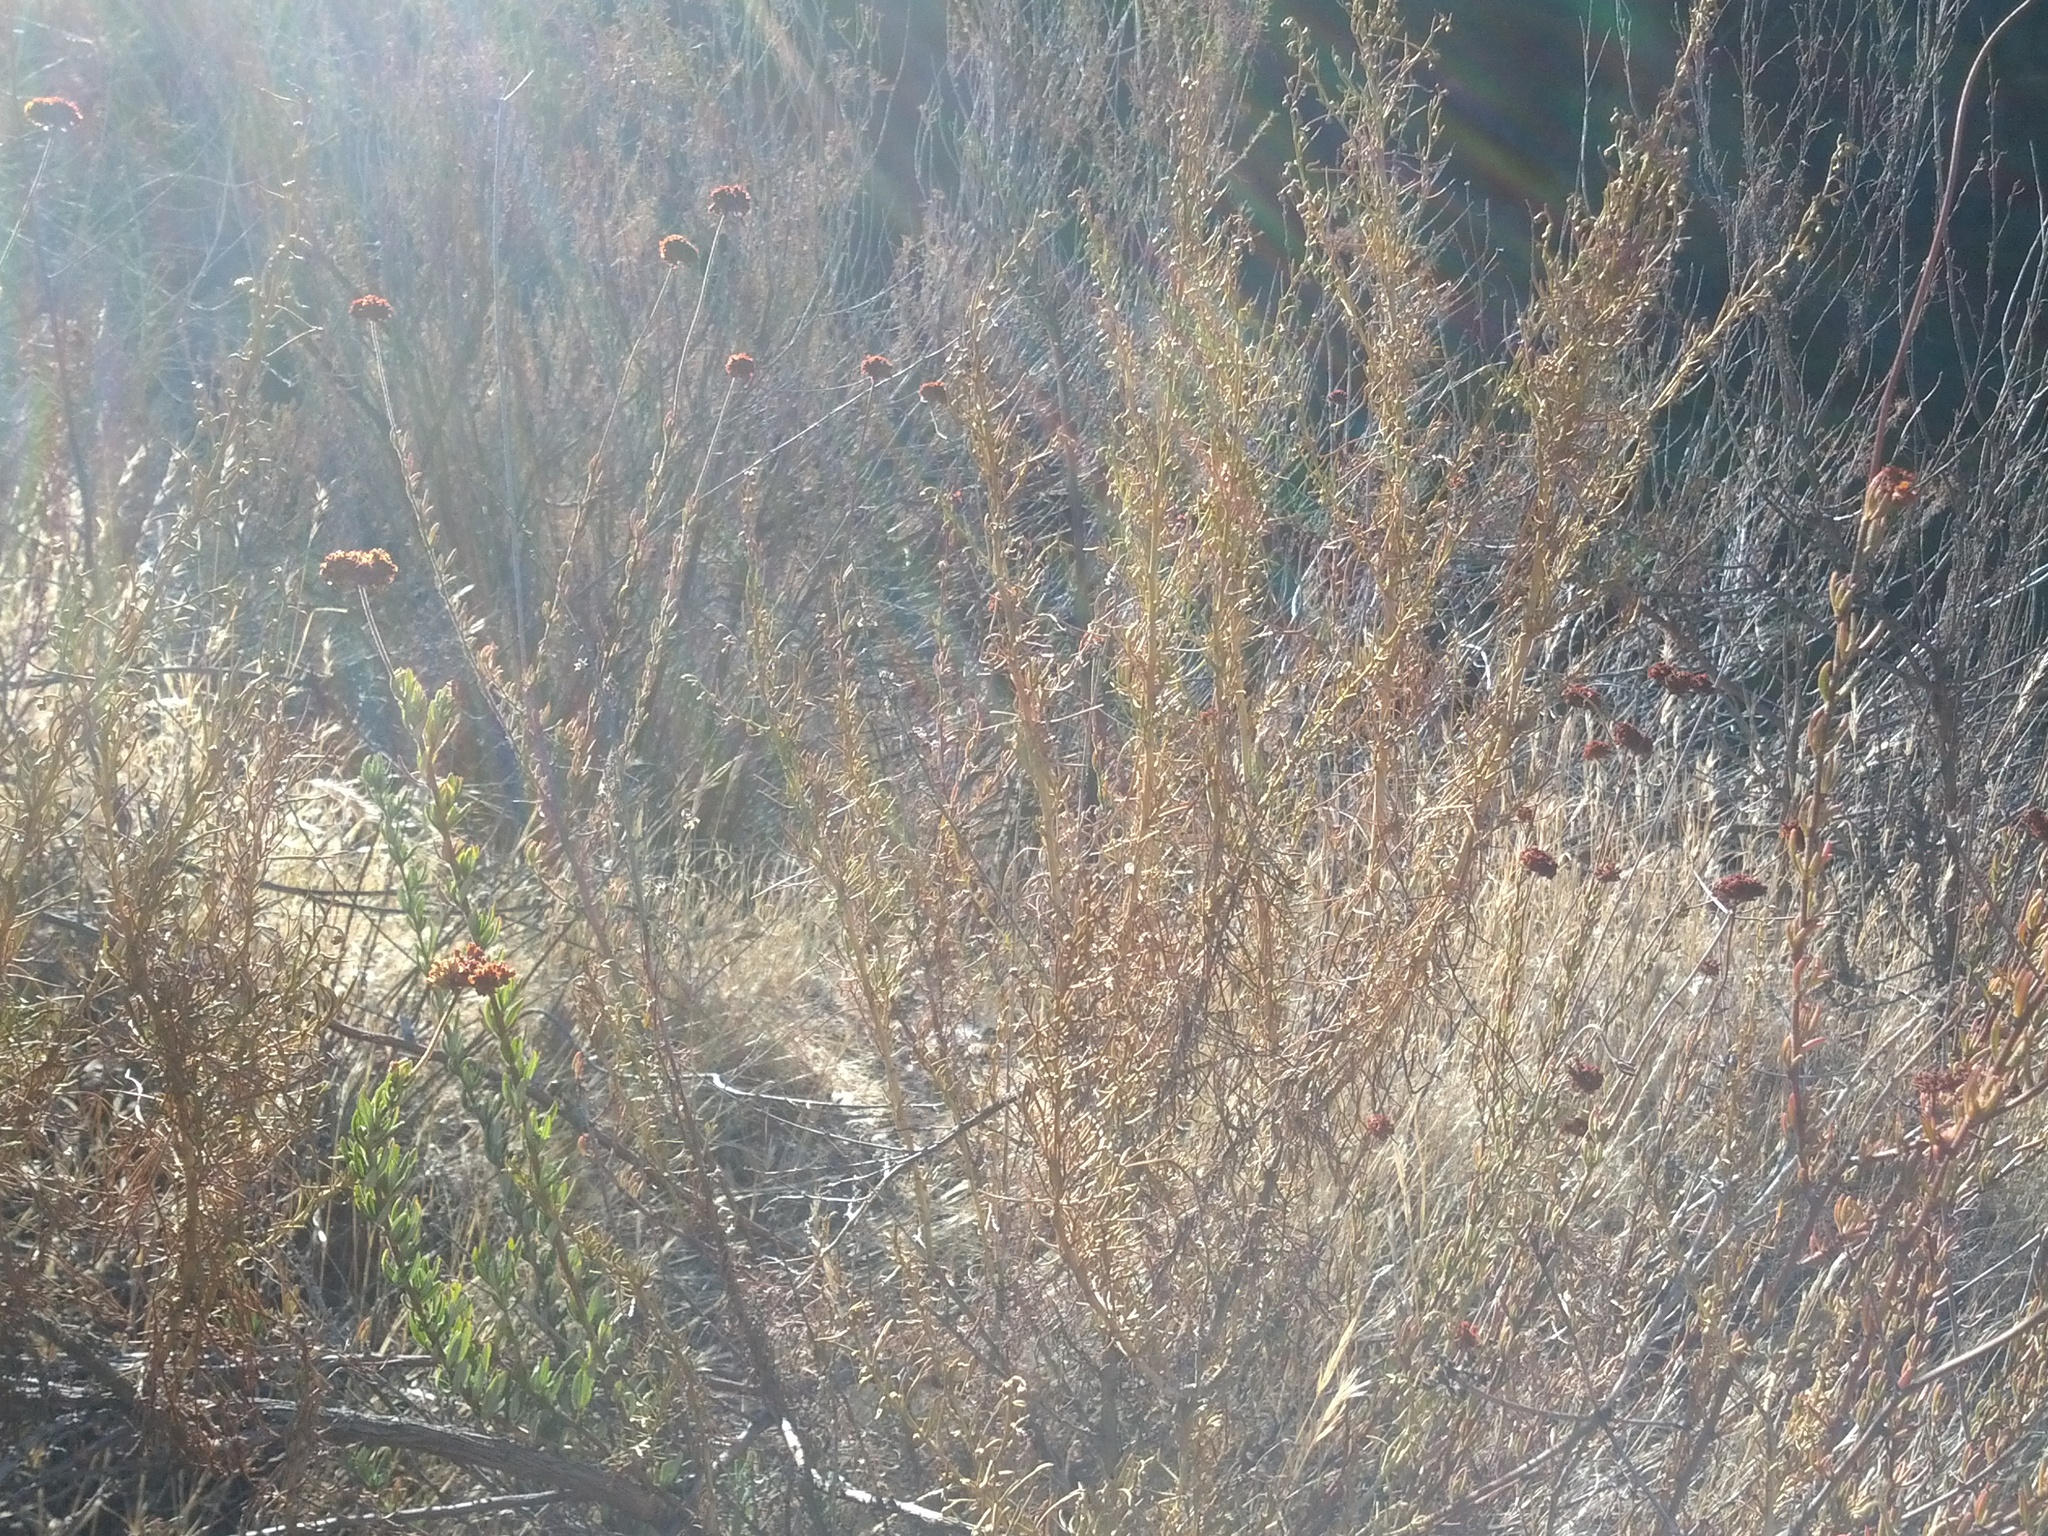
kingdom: Plantae
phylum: Tracheophyta
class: Magnoliopsida
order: Asterales
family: Asteraceae
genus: Artemisia
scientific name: Artemisia californica
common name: California sagebrush
